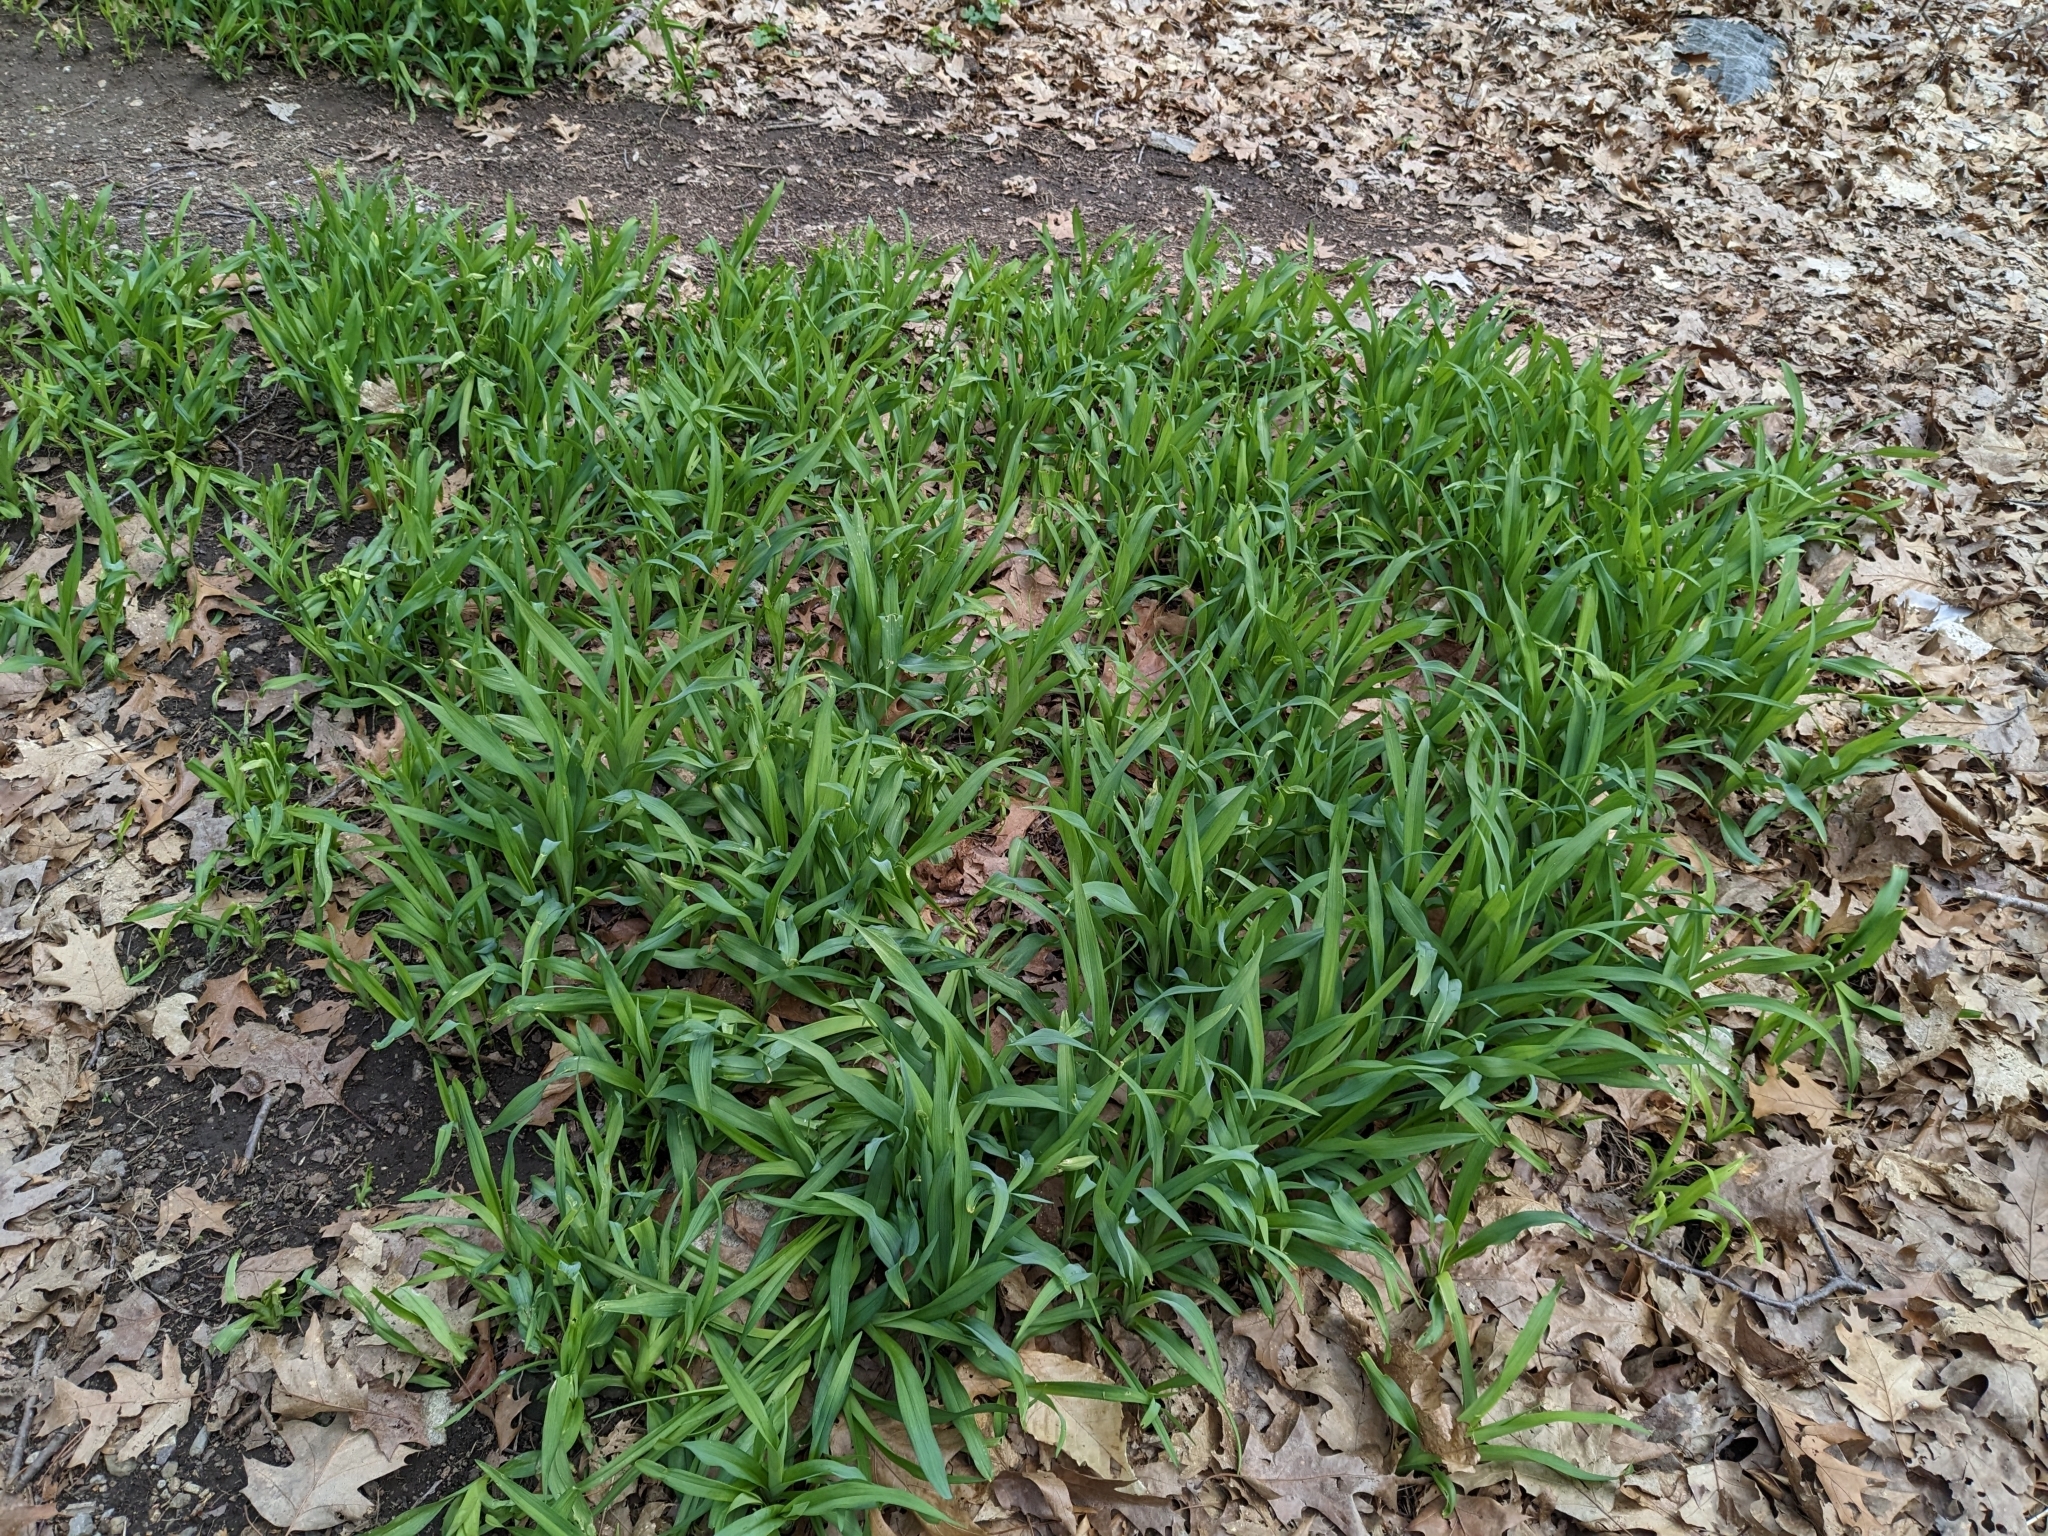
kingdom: Plantae
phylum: Tracheophyta
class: Liliopsida
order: Asparagales
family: Asphodelaceae
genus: Hemerocallis
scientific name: Hemerocallis fulva
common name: Orange day-lily
